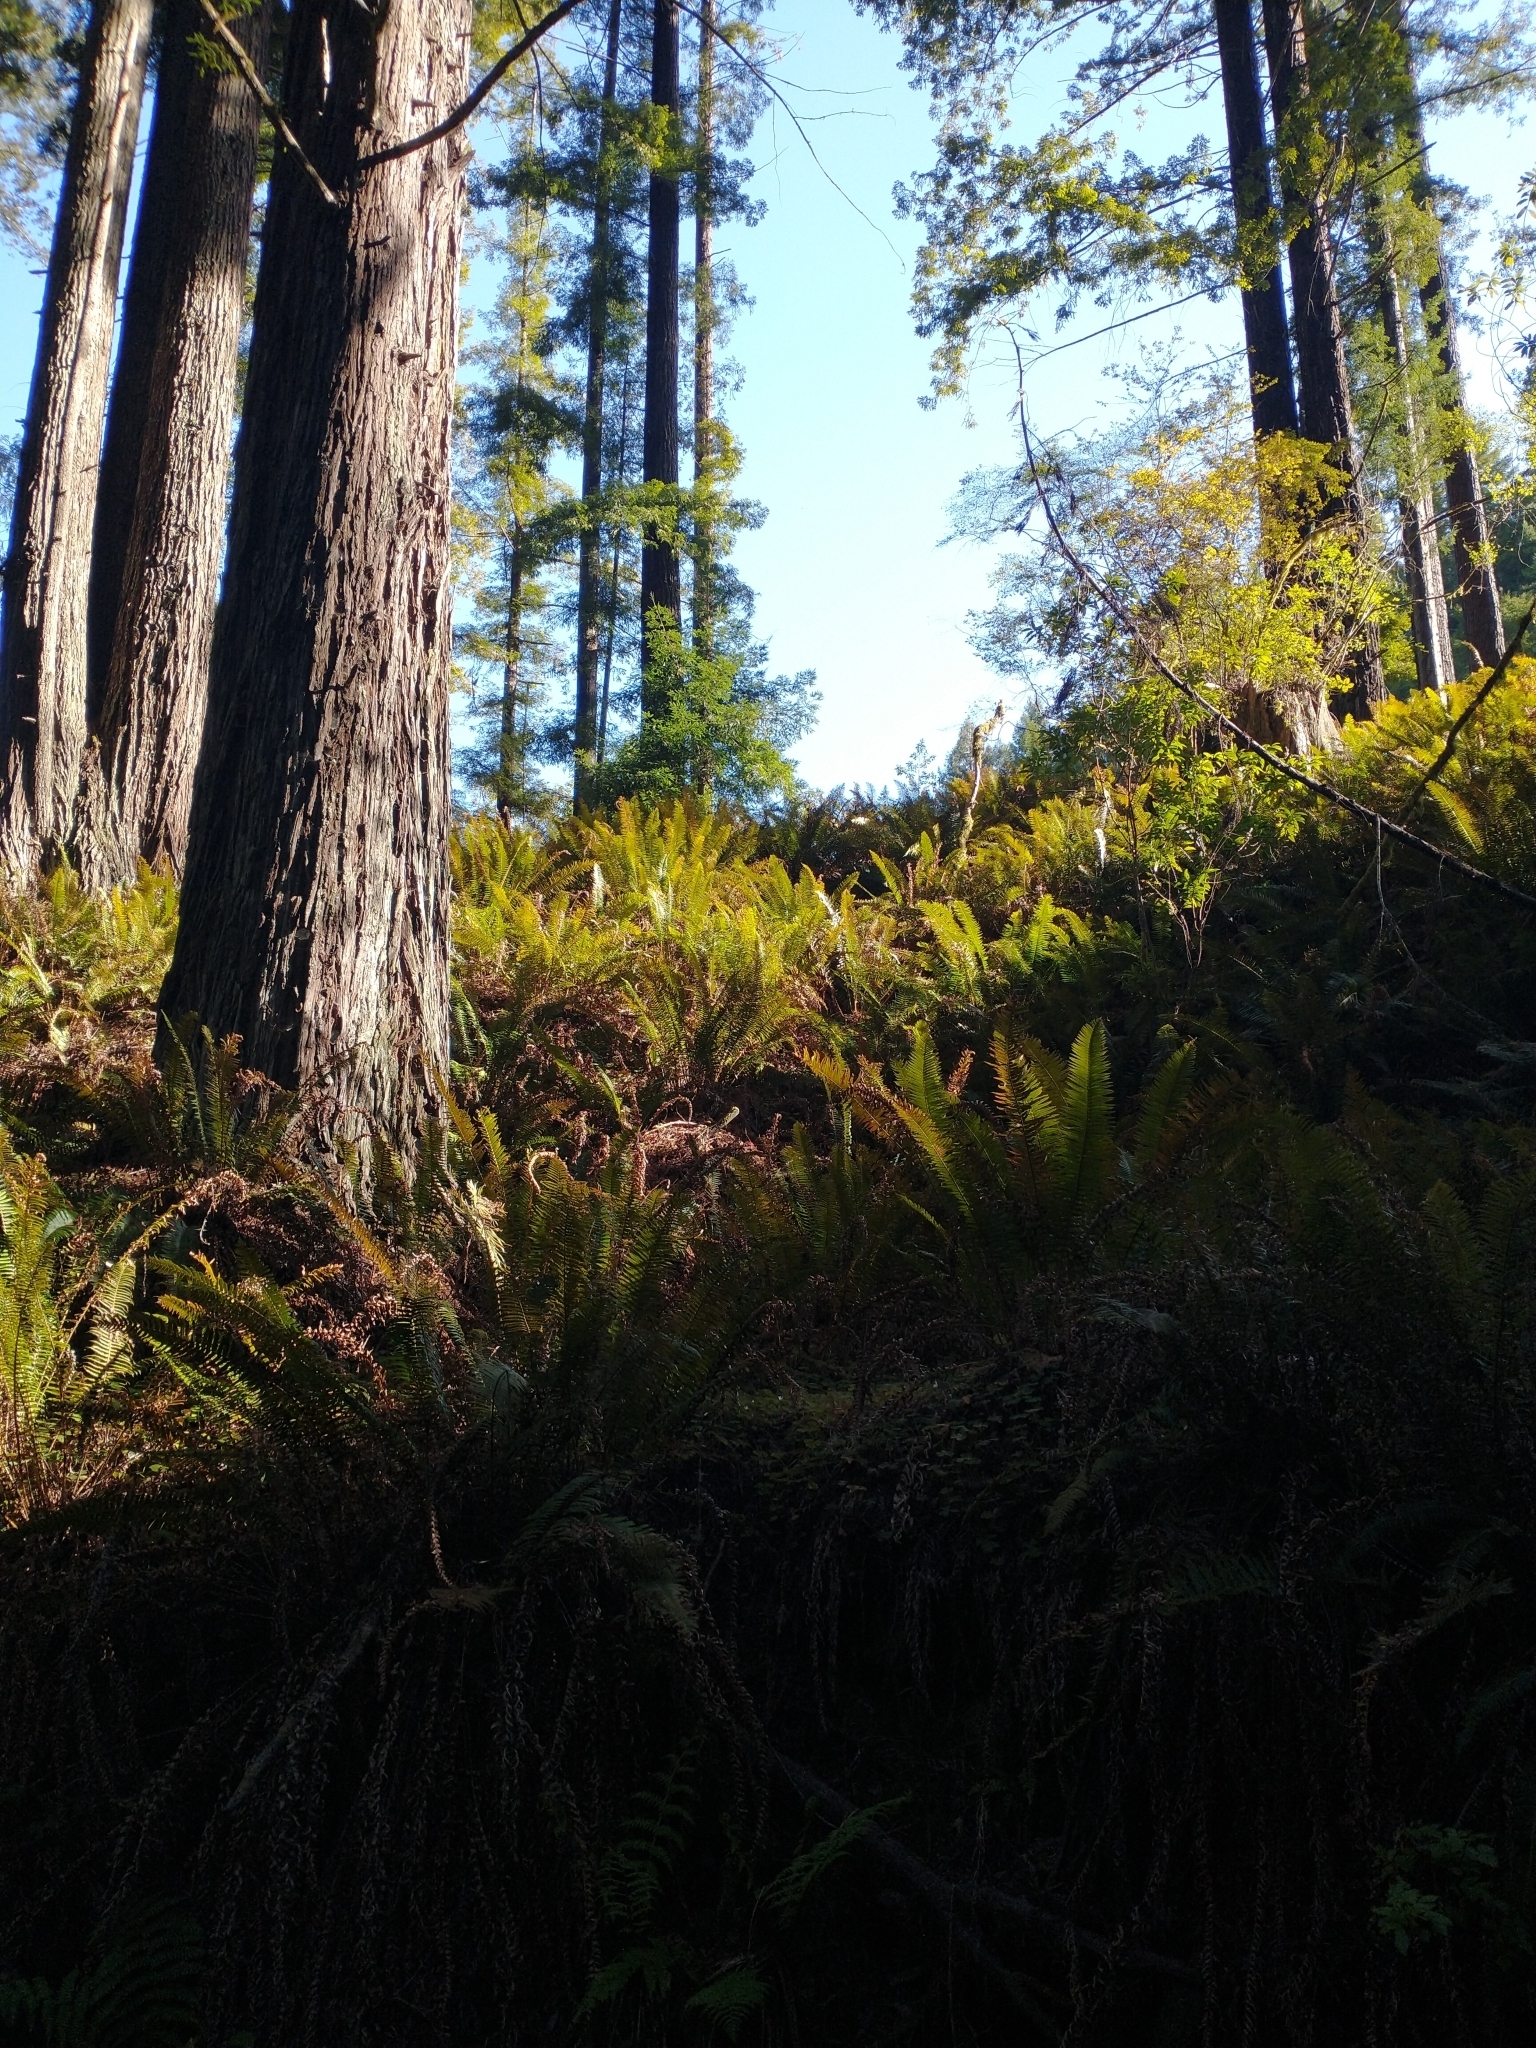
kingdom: Plantae
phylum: Tracheophyta
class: Polypodiopsida
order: Polypodiales
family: Dryopteridaceae
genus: Polystichum
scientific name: Polystichum munitum
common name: Western sword-fern
